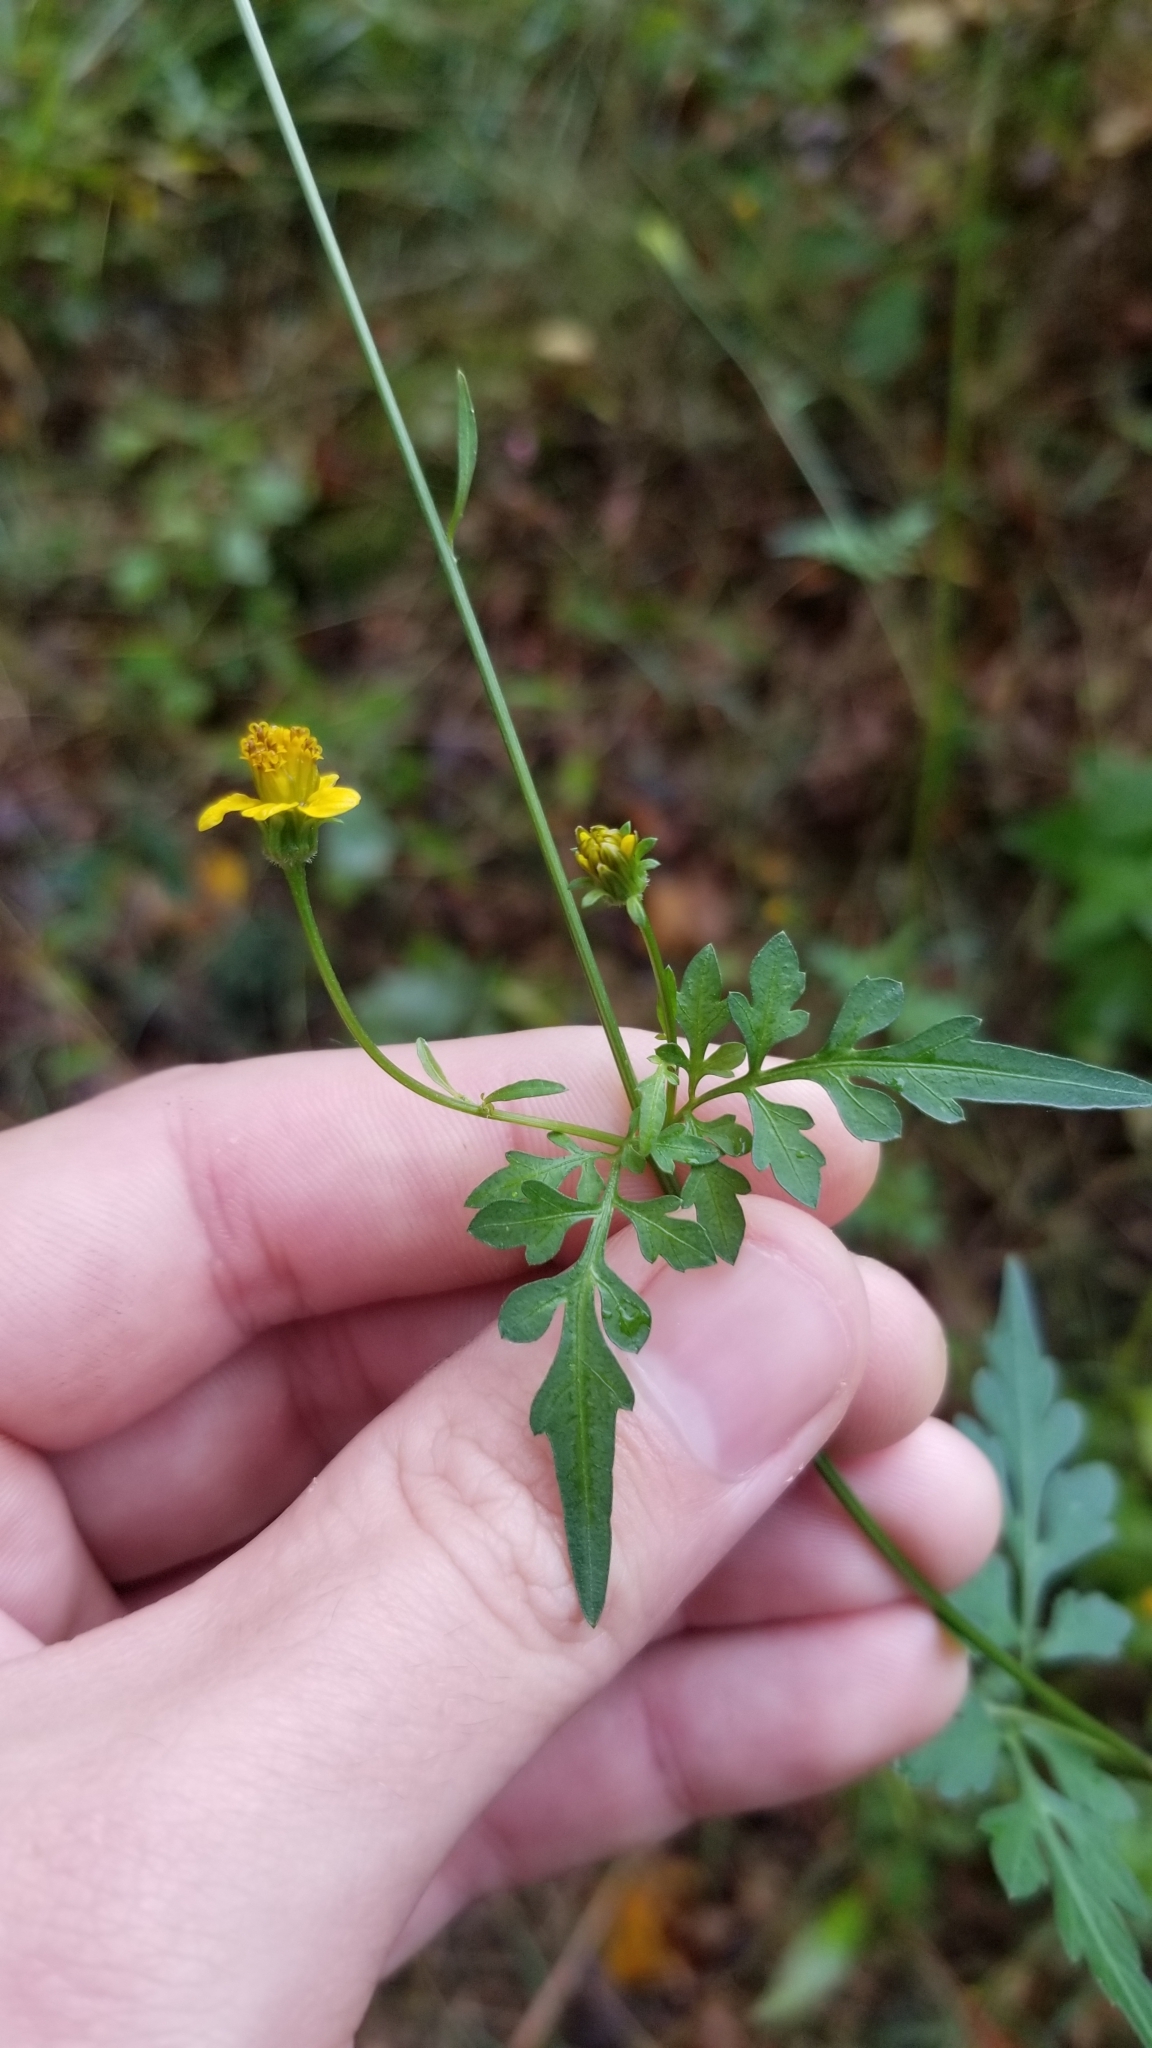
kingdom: Plantae
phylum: Tracheophyta
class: Magnoliopsida
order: Asterales
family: Asteraceae
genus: Bidens
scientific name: Bidens bipinnata
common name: Spanish-needles
